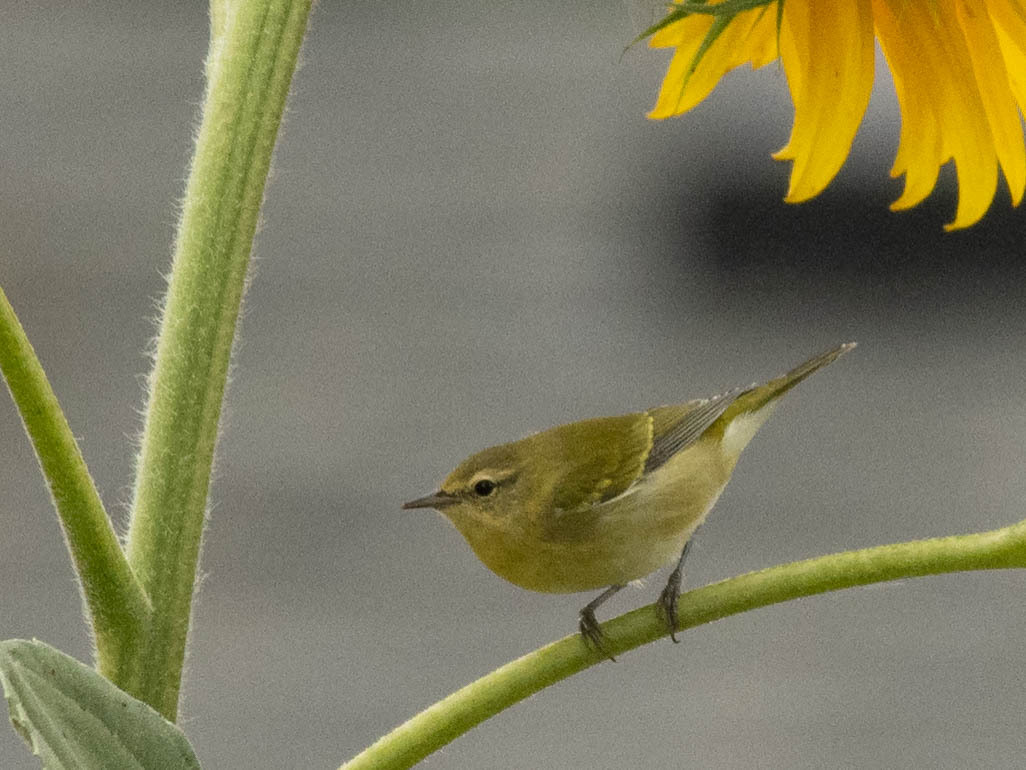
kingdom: Animalia
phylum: Chordata
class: Aves
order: Passeriformes
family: Parulidae
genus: Leiothlypis
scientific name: Leiothlypis peregrina
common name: Tennessee warbler
